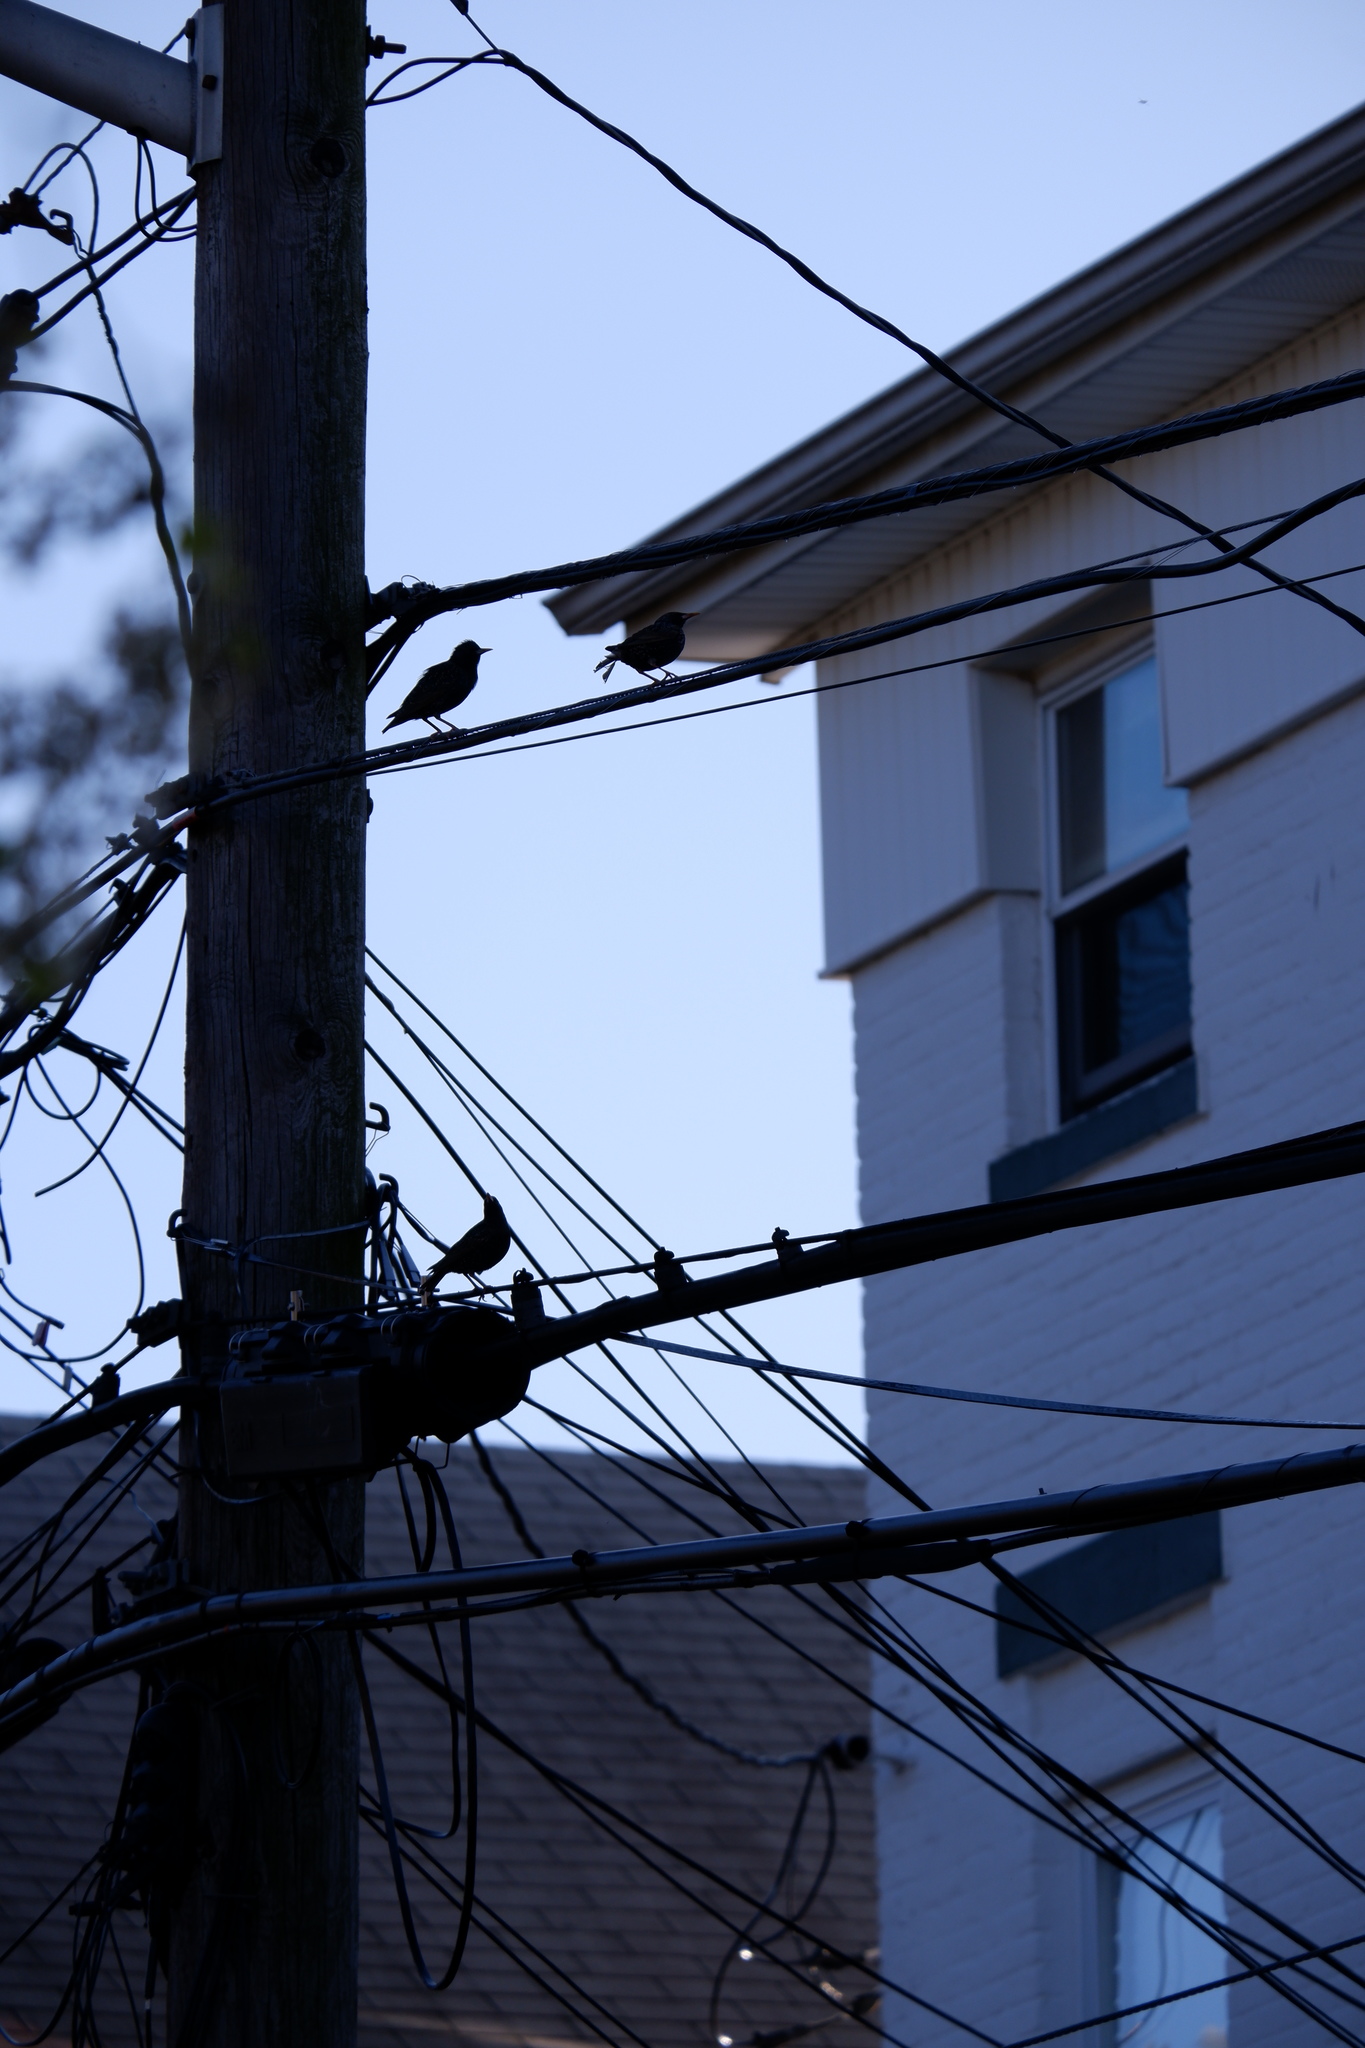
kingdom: Animalia
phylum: Chordata
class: Aves
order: Passeriformes
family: Sturnidae
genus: Sturnus
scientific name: Sturnus vulgaris
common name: Common starling
